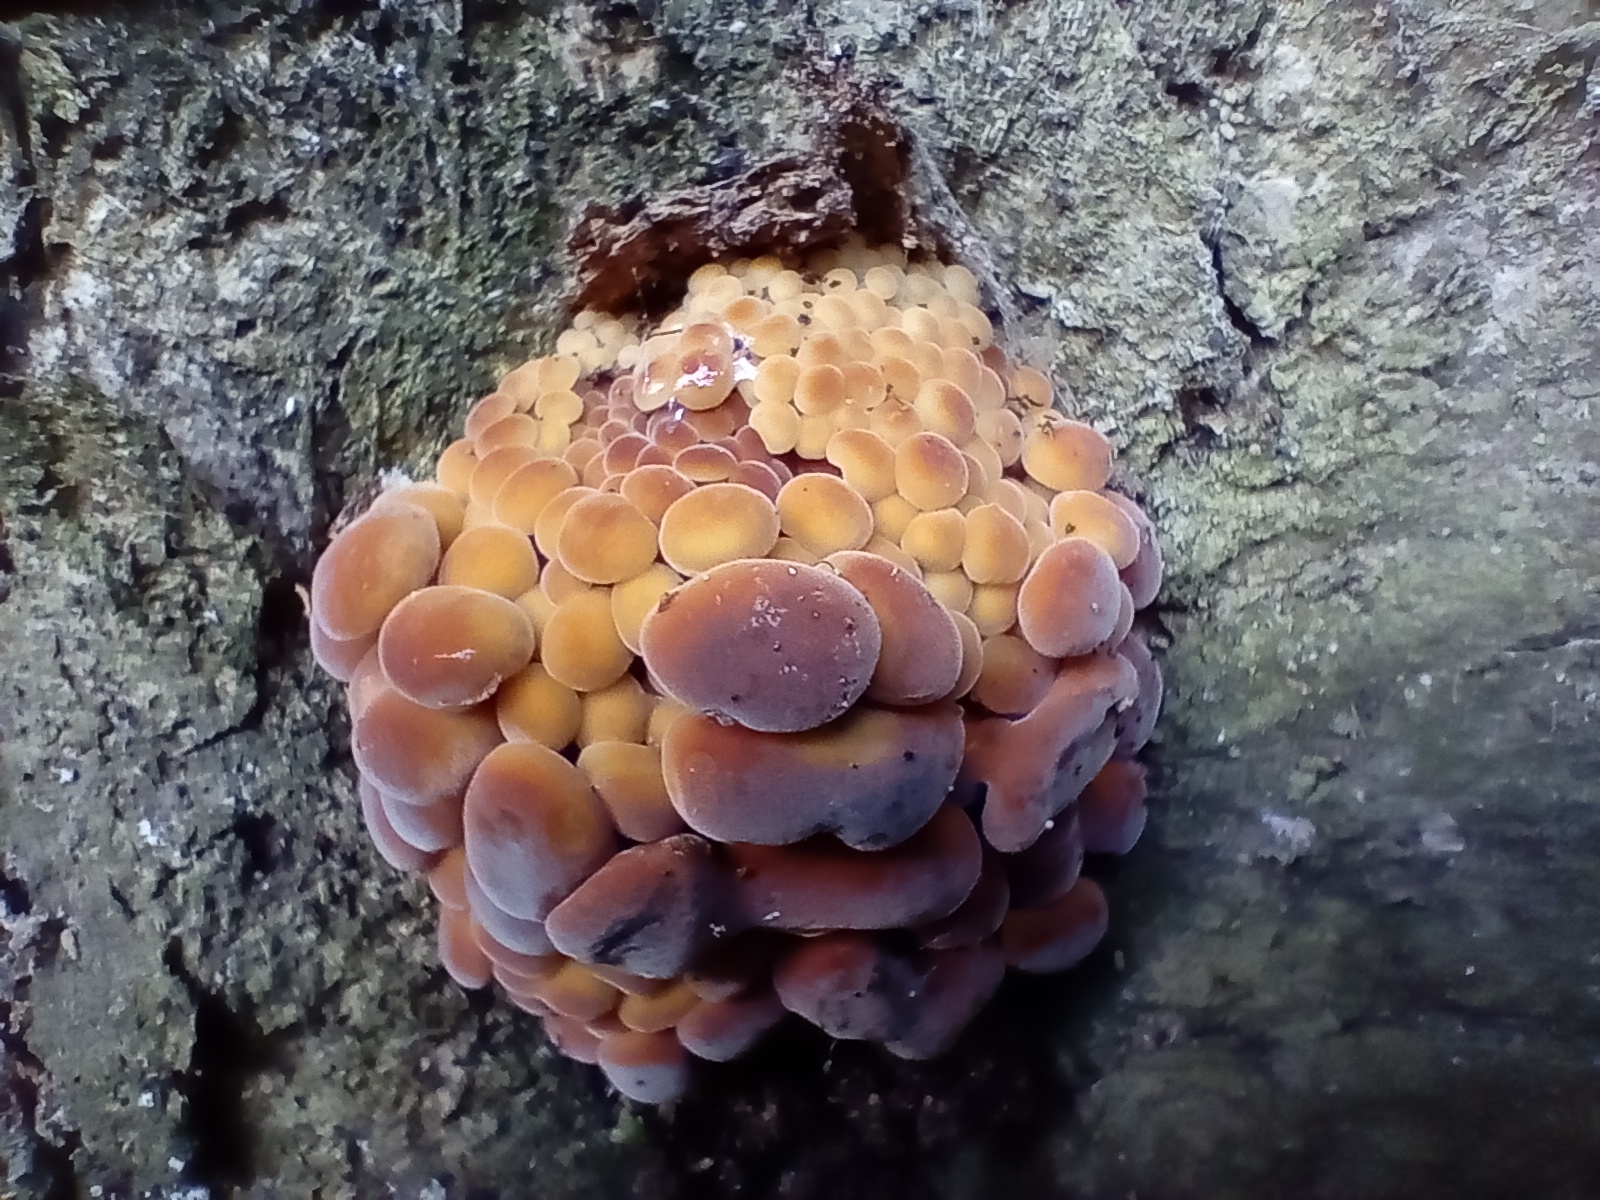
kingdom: Fungi
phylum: Basidiomycota
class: Agaricomycetes
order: Agaricales
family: Physalacriaceae
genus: Flammulina
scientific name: Flammulina velutipes
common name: Velvet shank
